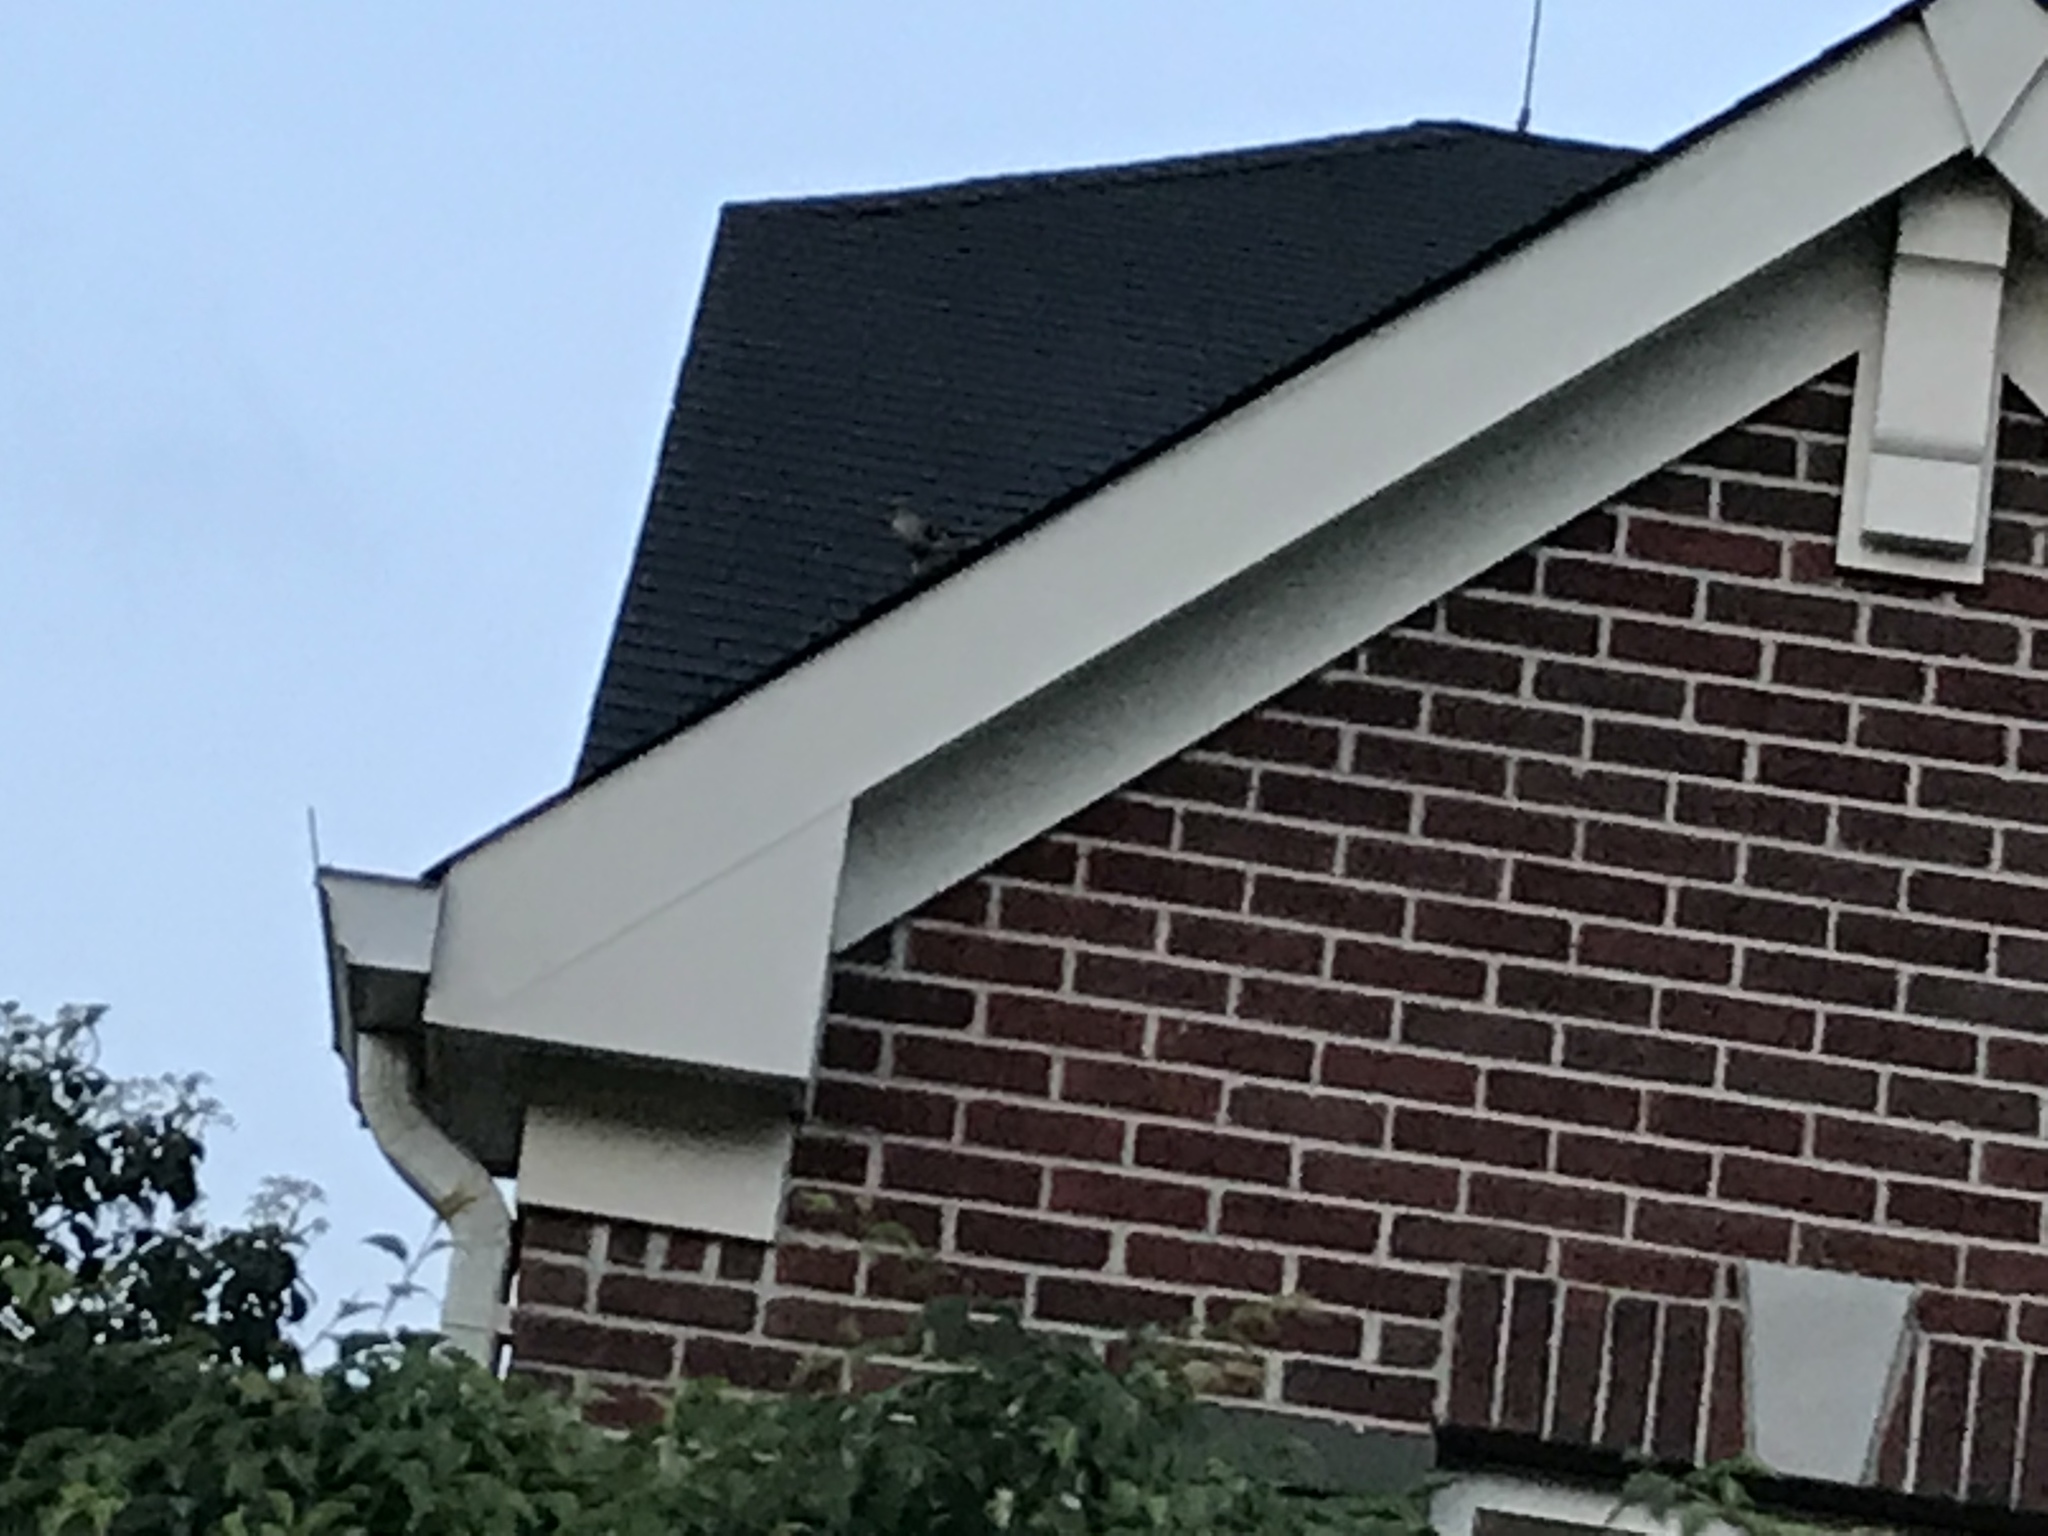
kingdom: Animalia
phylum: Chordata
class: Aves
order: Passeriformes
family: Mimidae
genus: Mimus
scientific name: Mimus polyglottos
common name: Northern mockingbird
